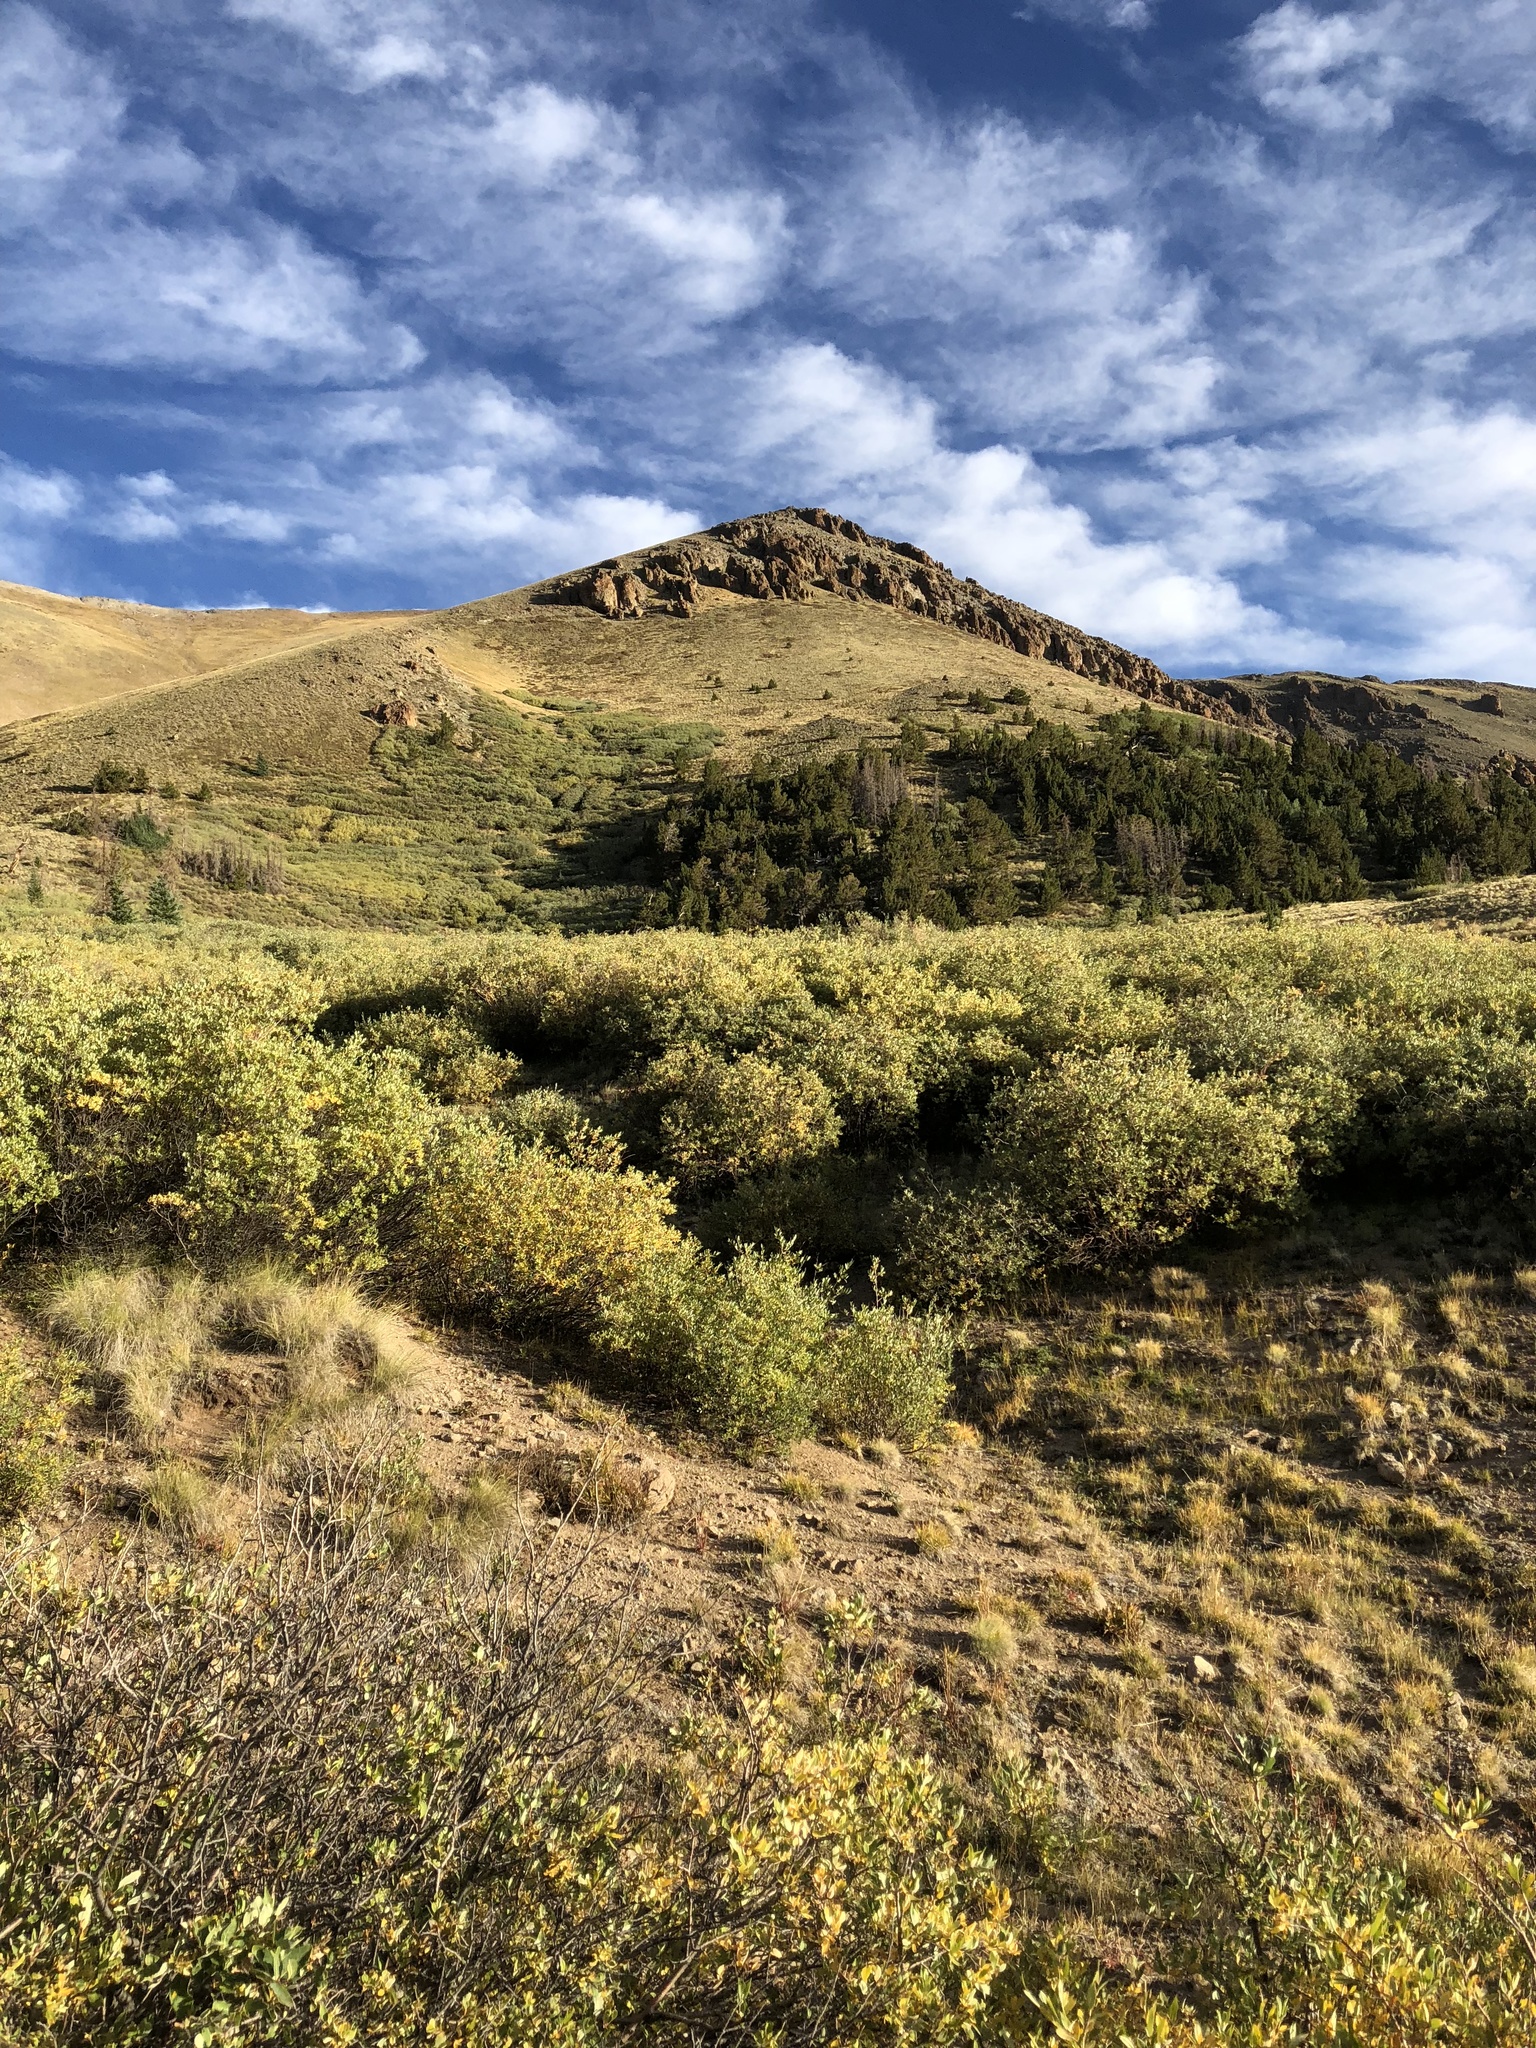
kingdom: Plantae
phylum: Tracheophyta
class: Magnoliopsida
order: Malpighiales
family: Salicaceae
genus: Salix
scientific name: Salix
